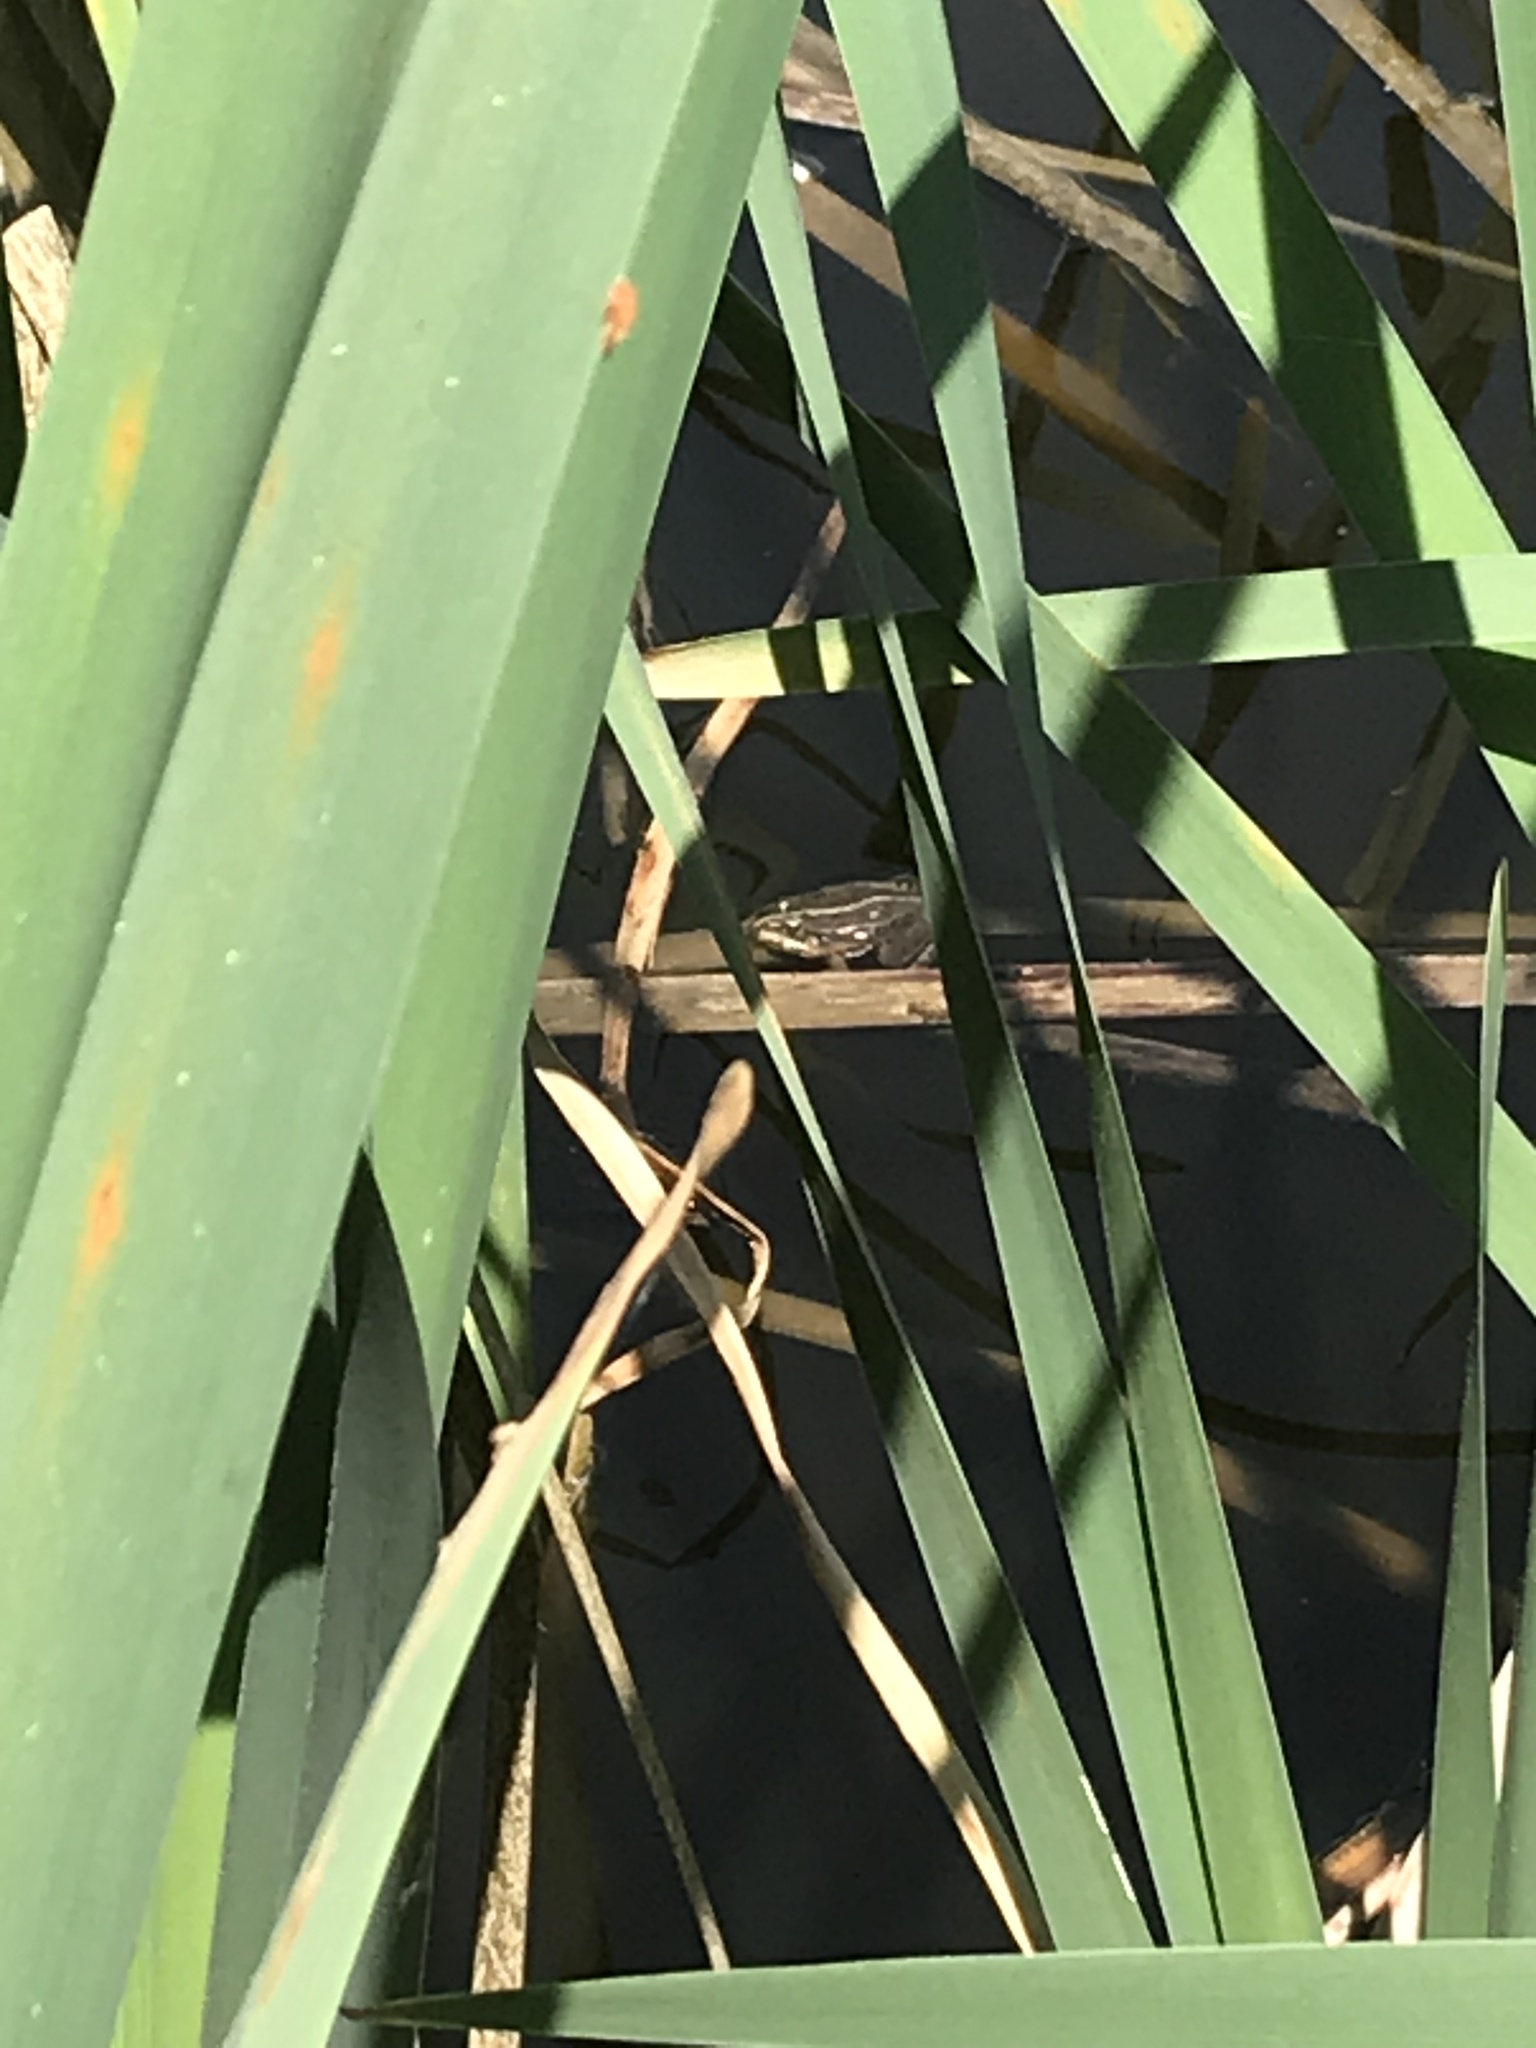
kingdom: Animalia
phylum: Chordata
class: Amphibia
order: Anura
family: Ranidae
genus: Pelophylax
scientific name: Pelophylax
